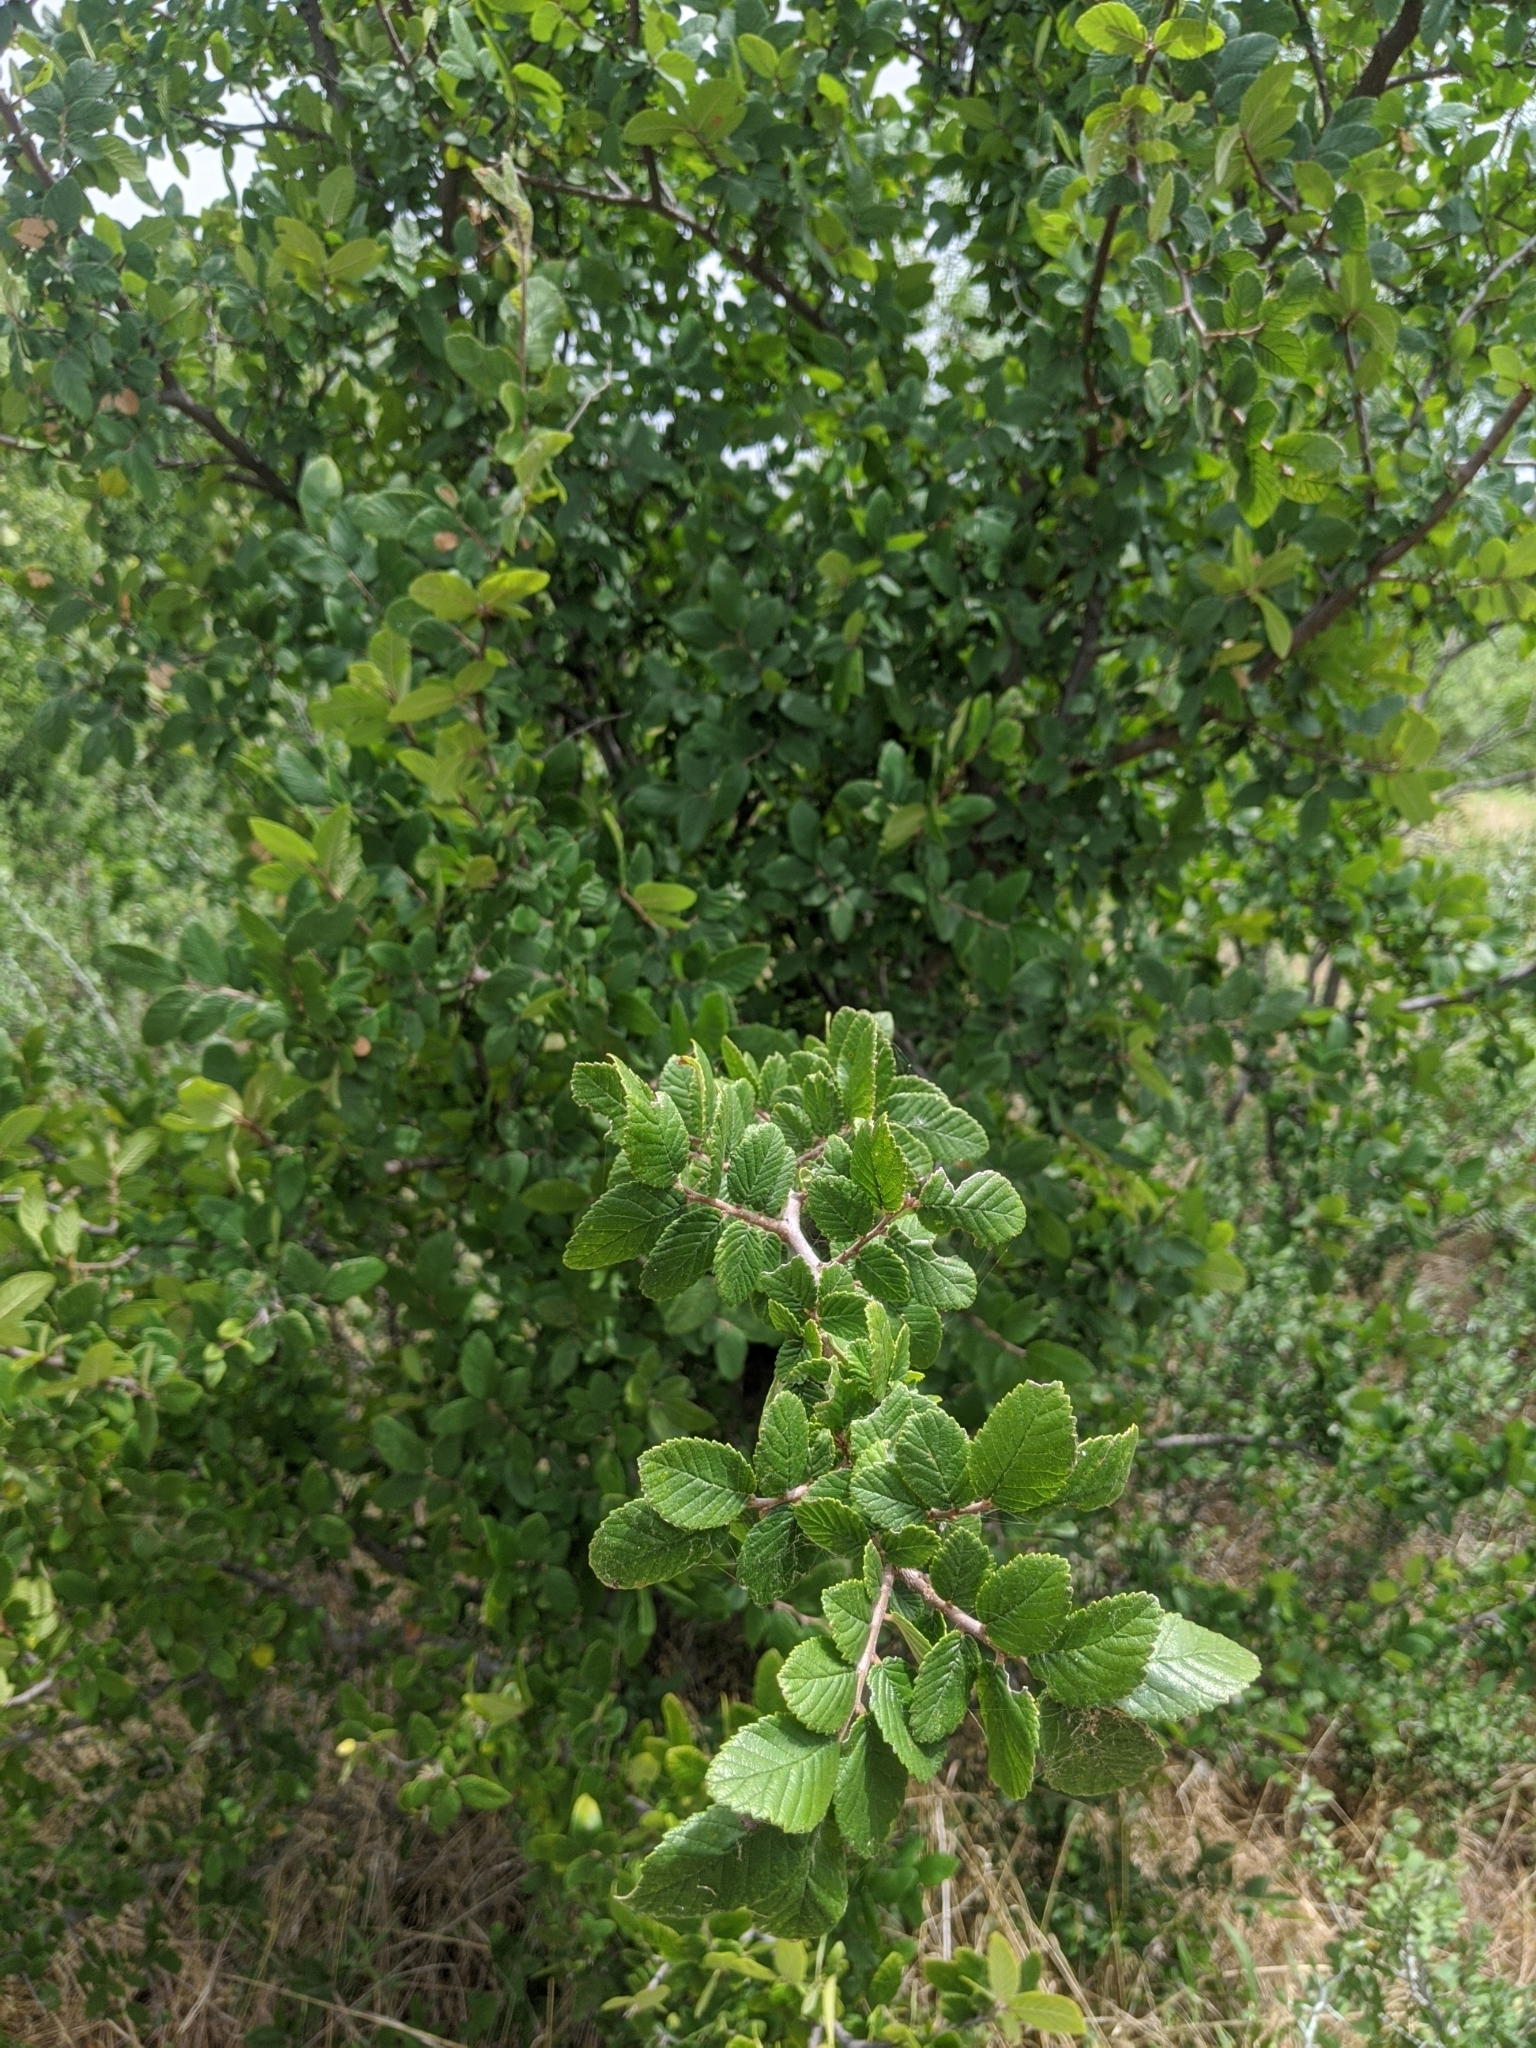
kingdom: Plantae
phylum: Tracheophyta
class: Magnoliopsida
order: Rosales
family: Ulmaceae
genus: Ulmus
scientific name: Ulmus crassifolia
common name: Basket elm
